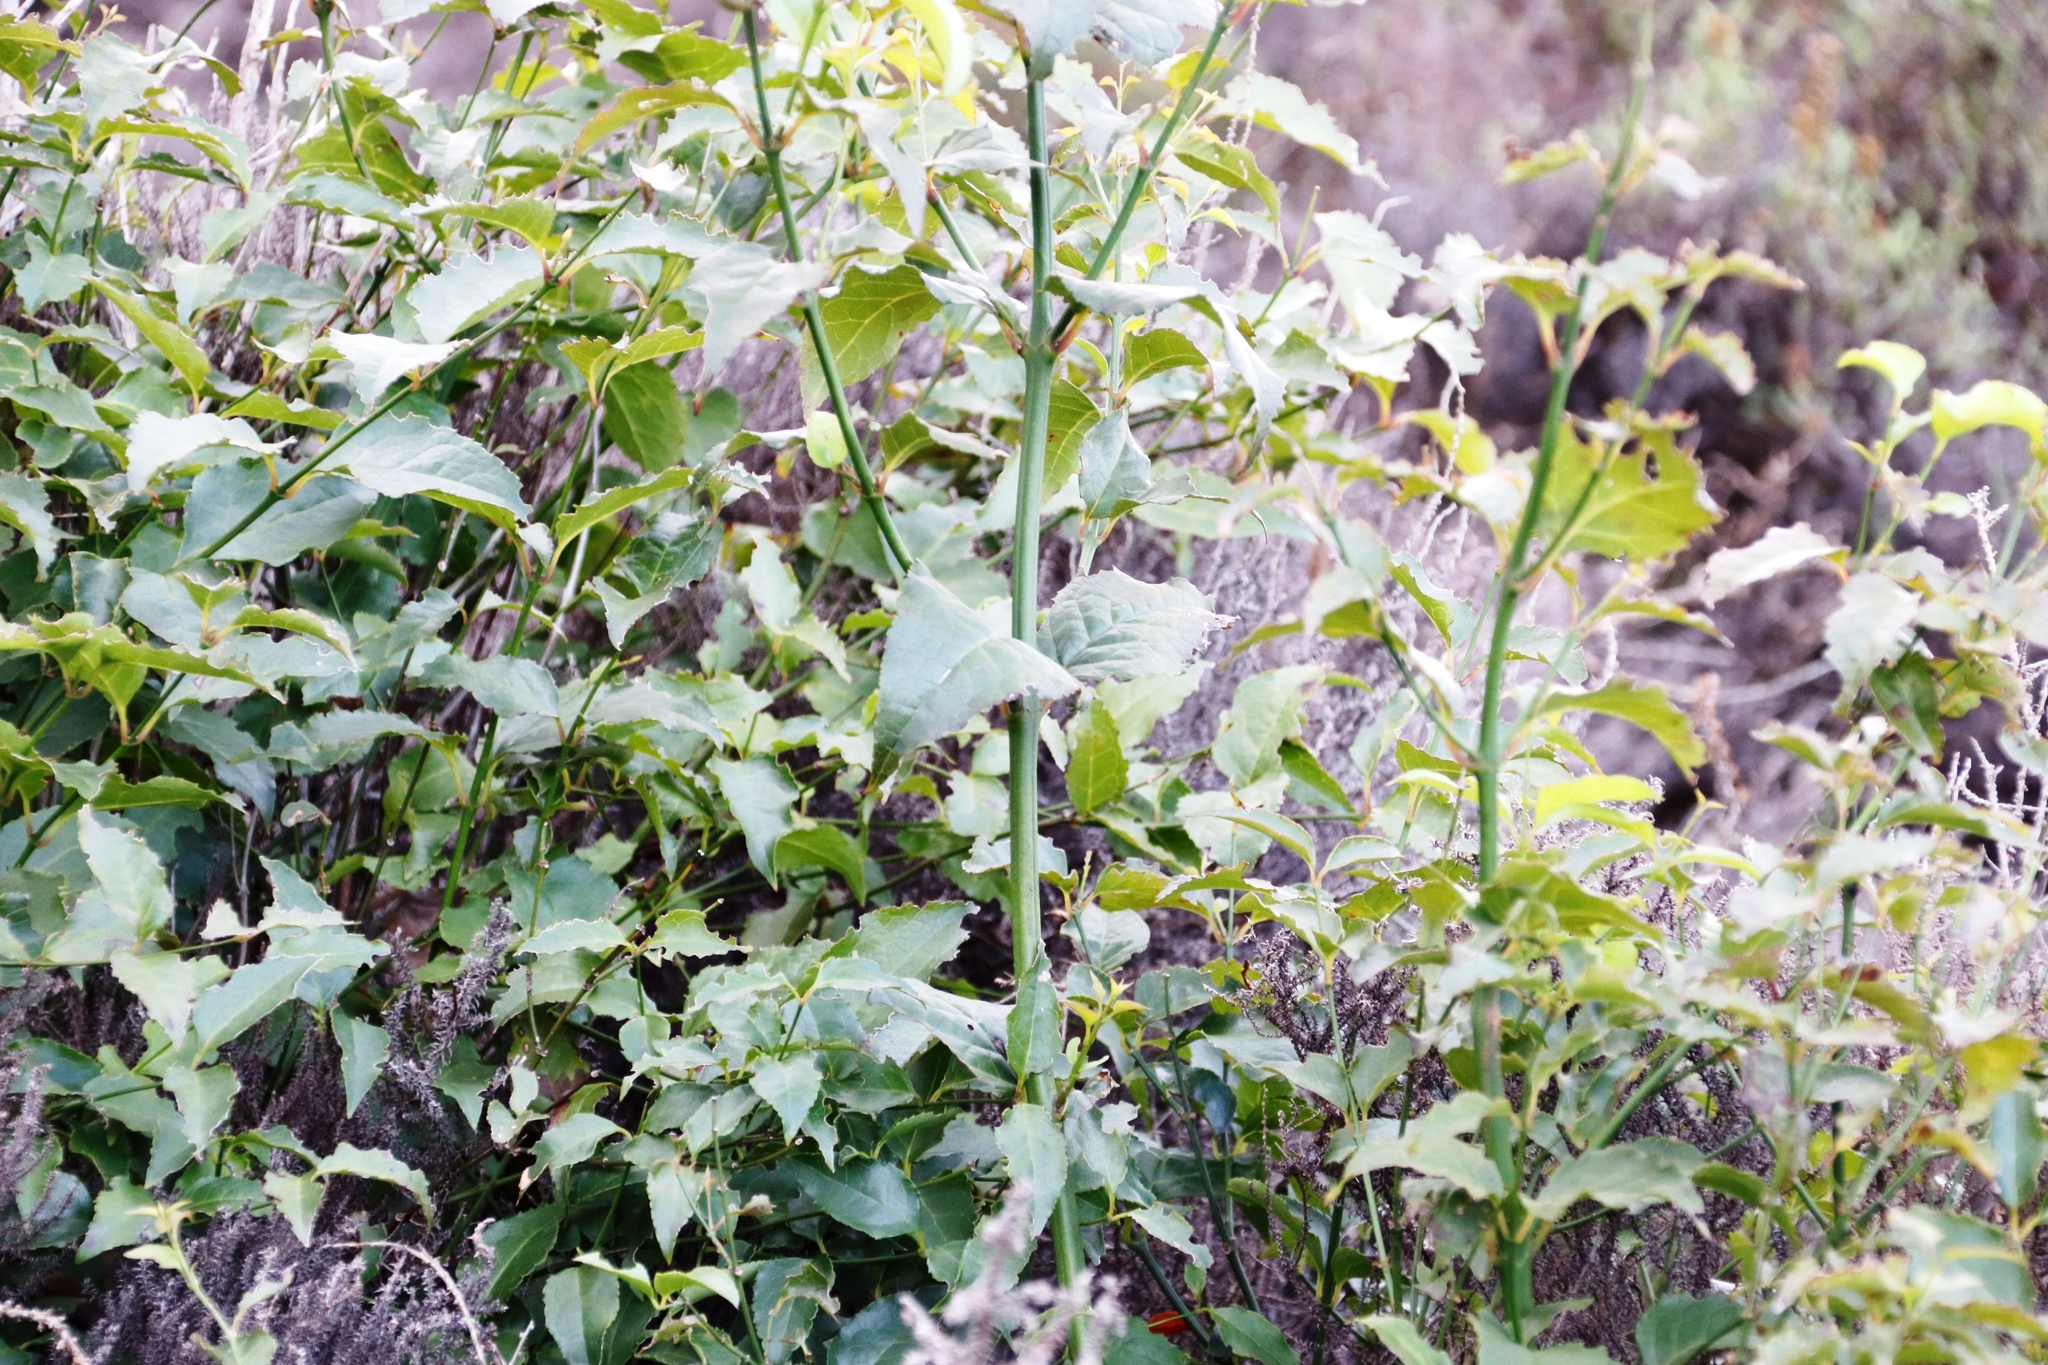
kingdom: Plantae
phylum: Tracheophyta
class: Magnoliopsida
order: Lamiales
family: Stilbaceae
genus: Halleria
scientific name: Halleria lucida
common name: Tree fuschia
